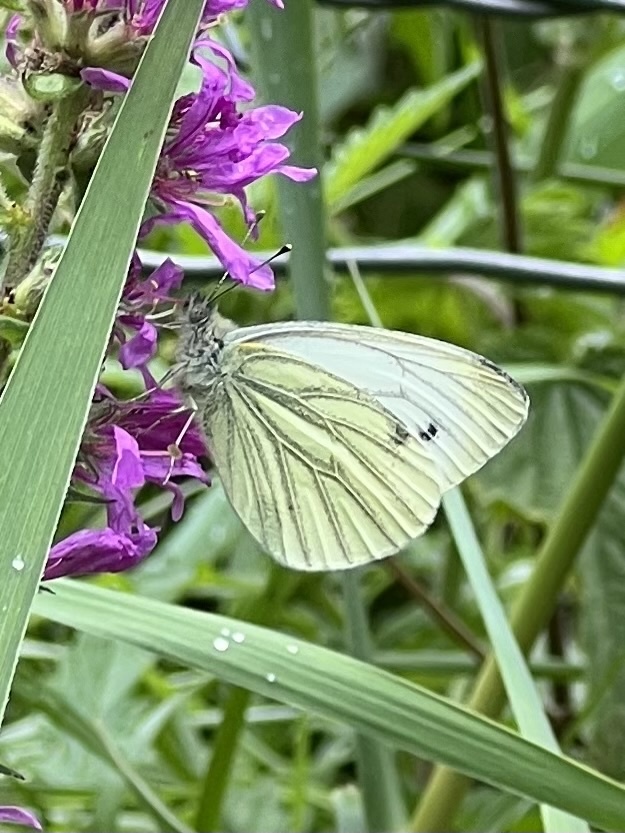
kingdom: Animalia
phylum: Arthropoda
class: Insecta
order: Lepidoptera
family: Pieridae
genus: Pieris
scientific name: Pieris napi
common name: Green-veined white
